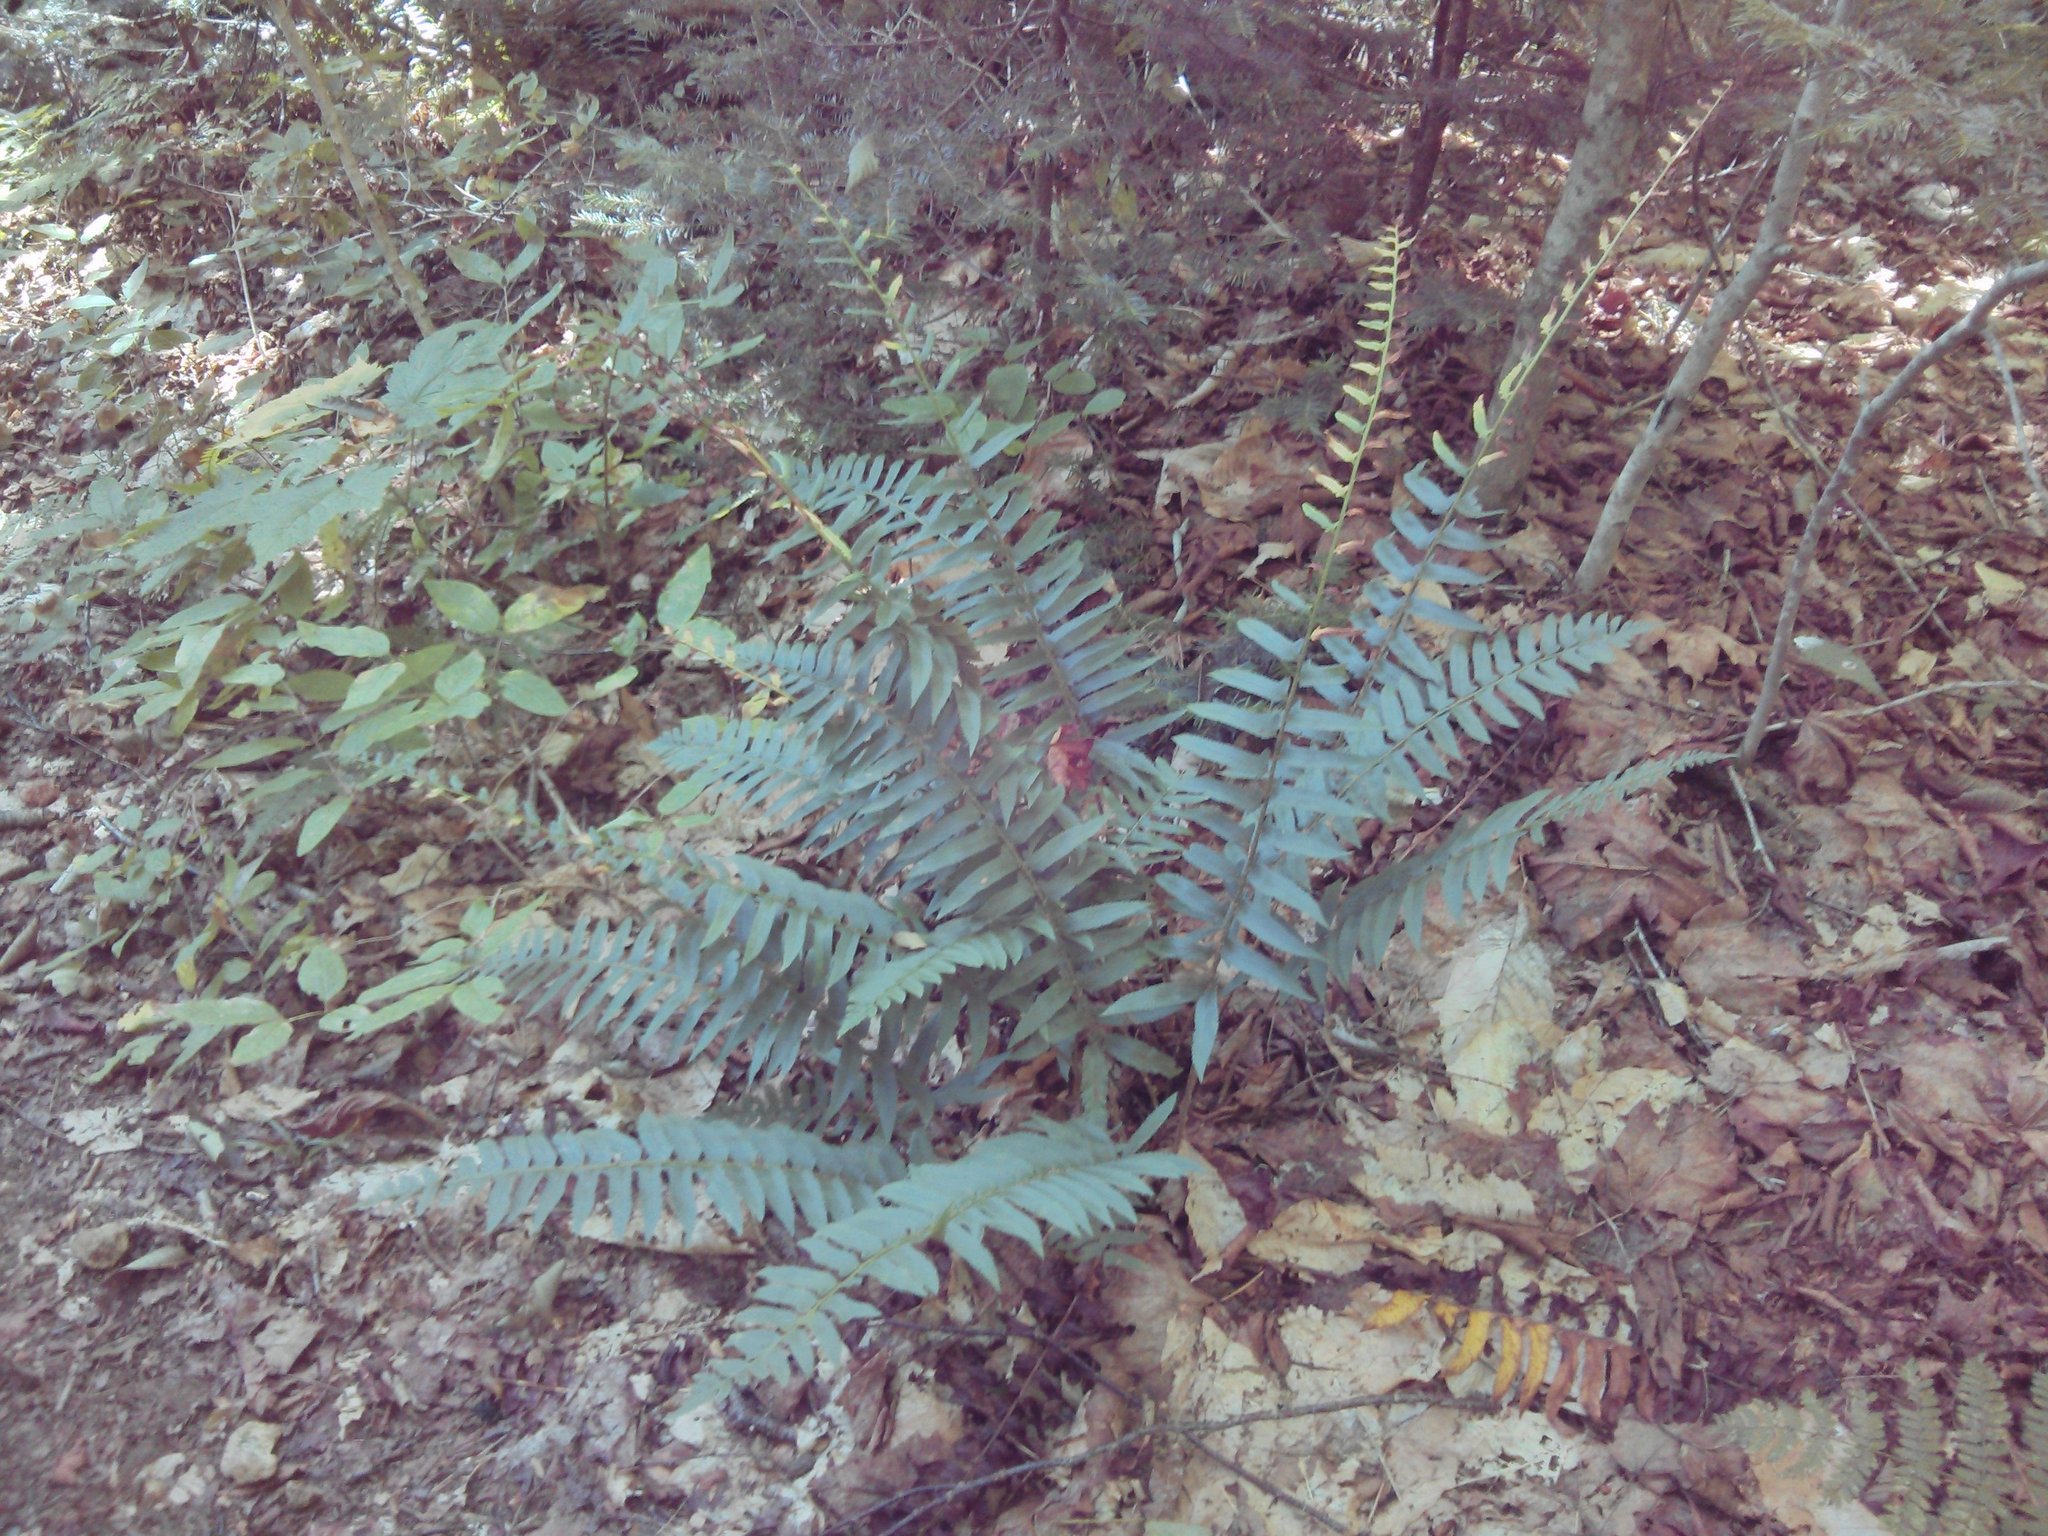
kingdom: Plantae
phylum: Tracheophyta
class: Polypodiopsida
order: Polypodiales
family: Dryopteridaceae
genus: Polystichum
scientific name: Polystichum acrostichoides
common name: Christmas fern
